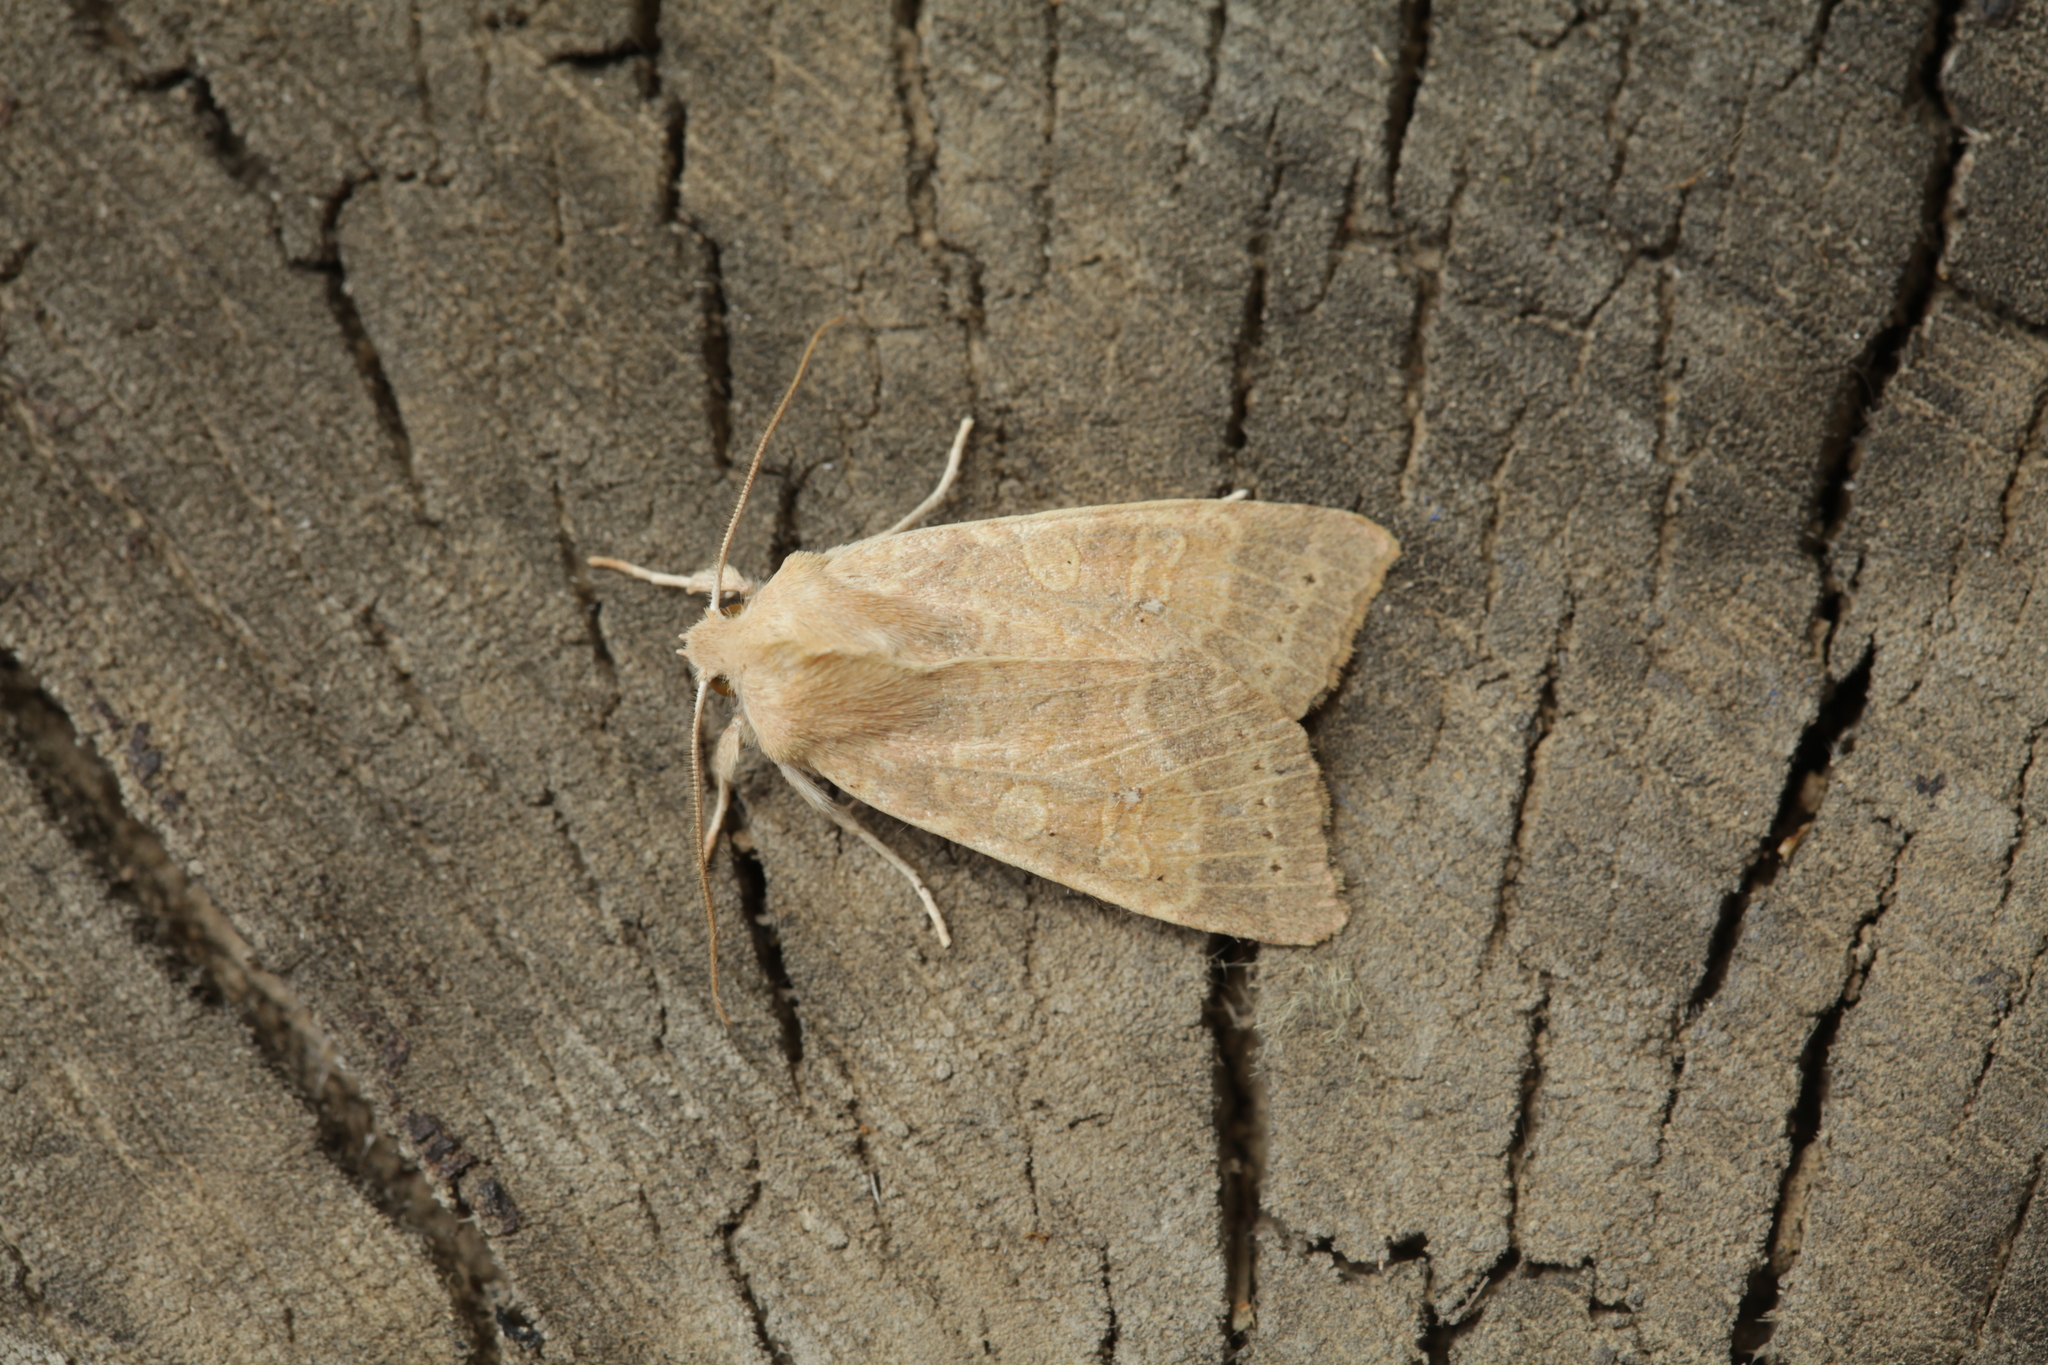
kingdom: Animalia
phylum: Arthropoda
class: Insecta
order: Lepidoptera
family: Noctuidae
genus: Xanthia
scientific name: Xanthia ocellaris
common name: Pale-lemon sallow
